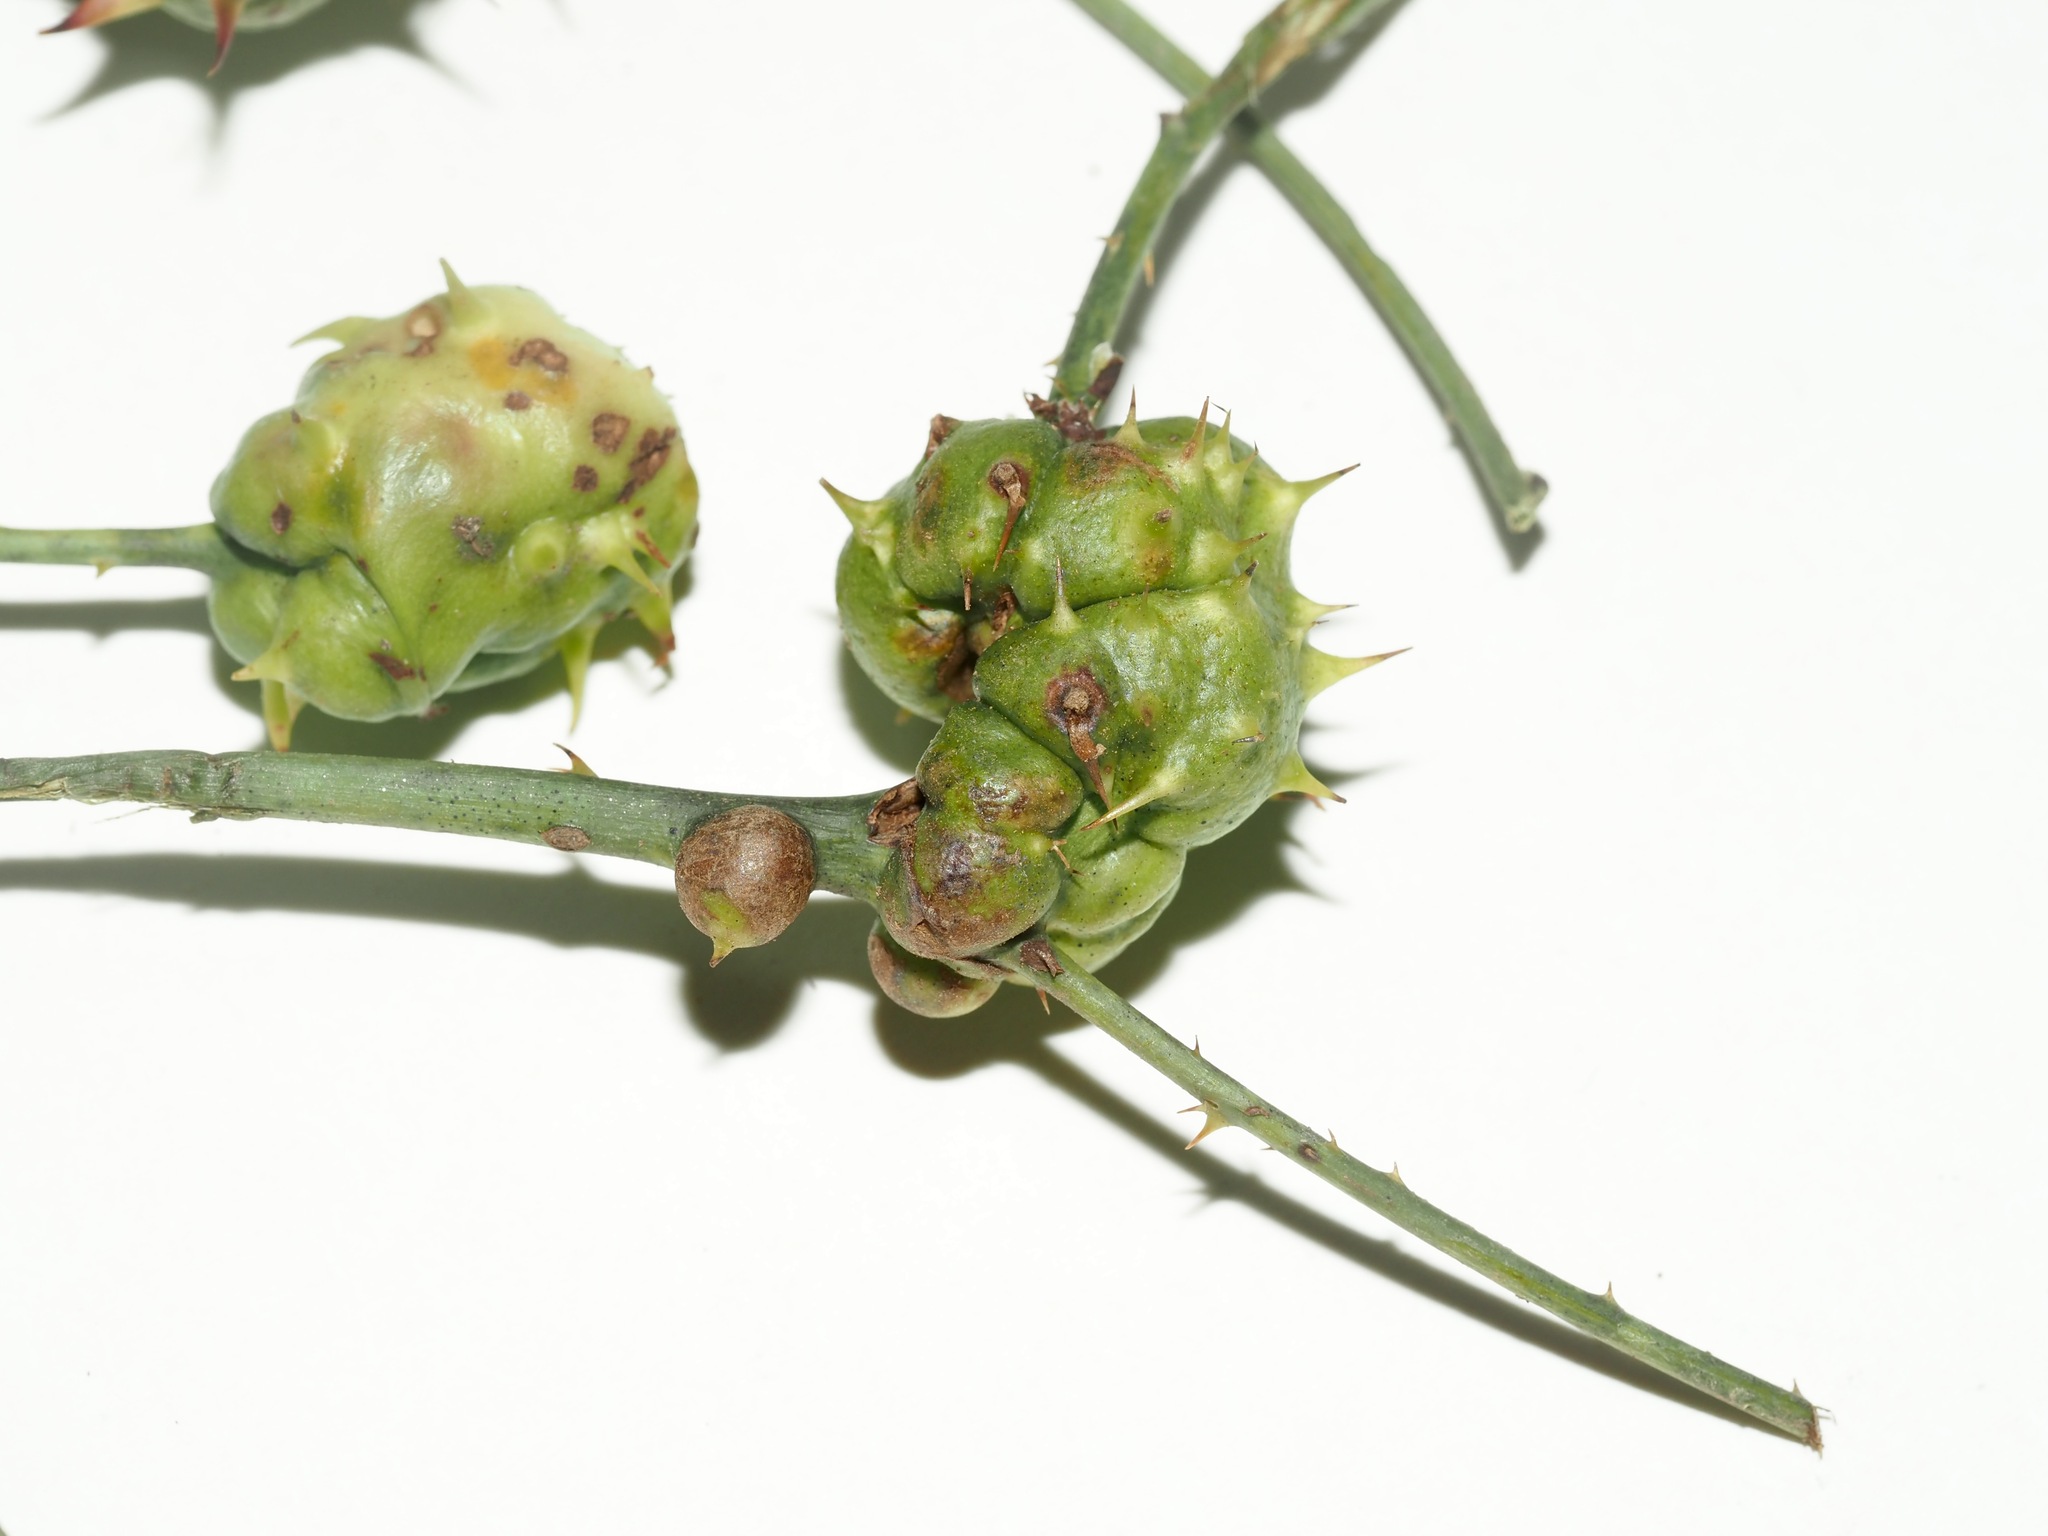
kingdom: Animalia
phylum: Arthropoda
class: Insecta
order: Hymenoptera
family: Cynipidae
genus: Diastrophus
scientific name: Diastrophus
